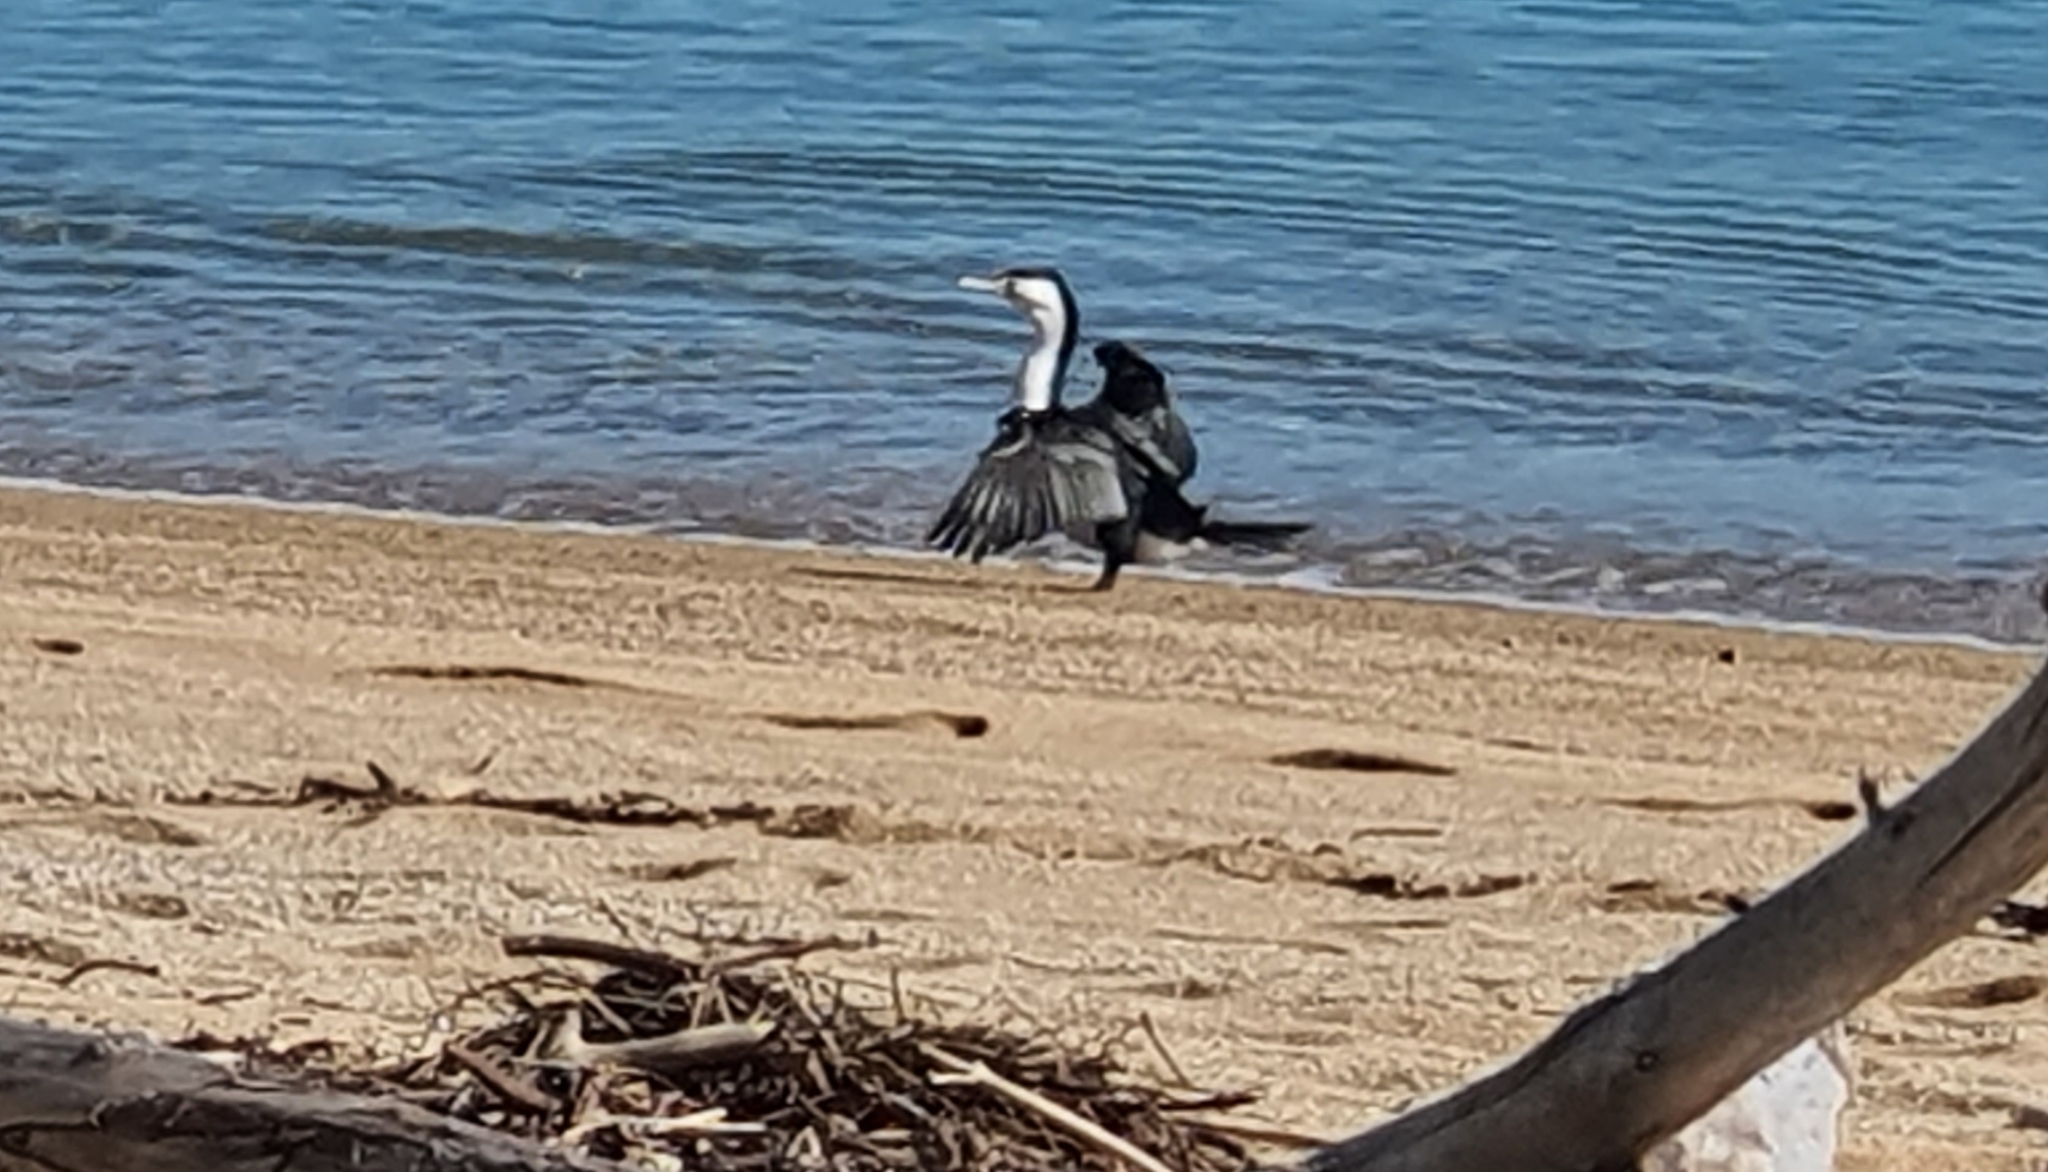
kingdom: Animalia
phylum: Chordata
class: Aves
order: Suliformes
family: Phalacrocoracidae
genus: Phalacrocorax
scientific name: Phalacrocorax varius
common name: Pied cormorant
